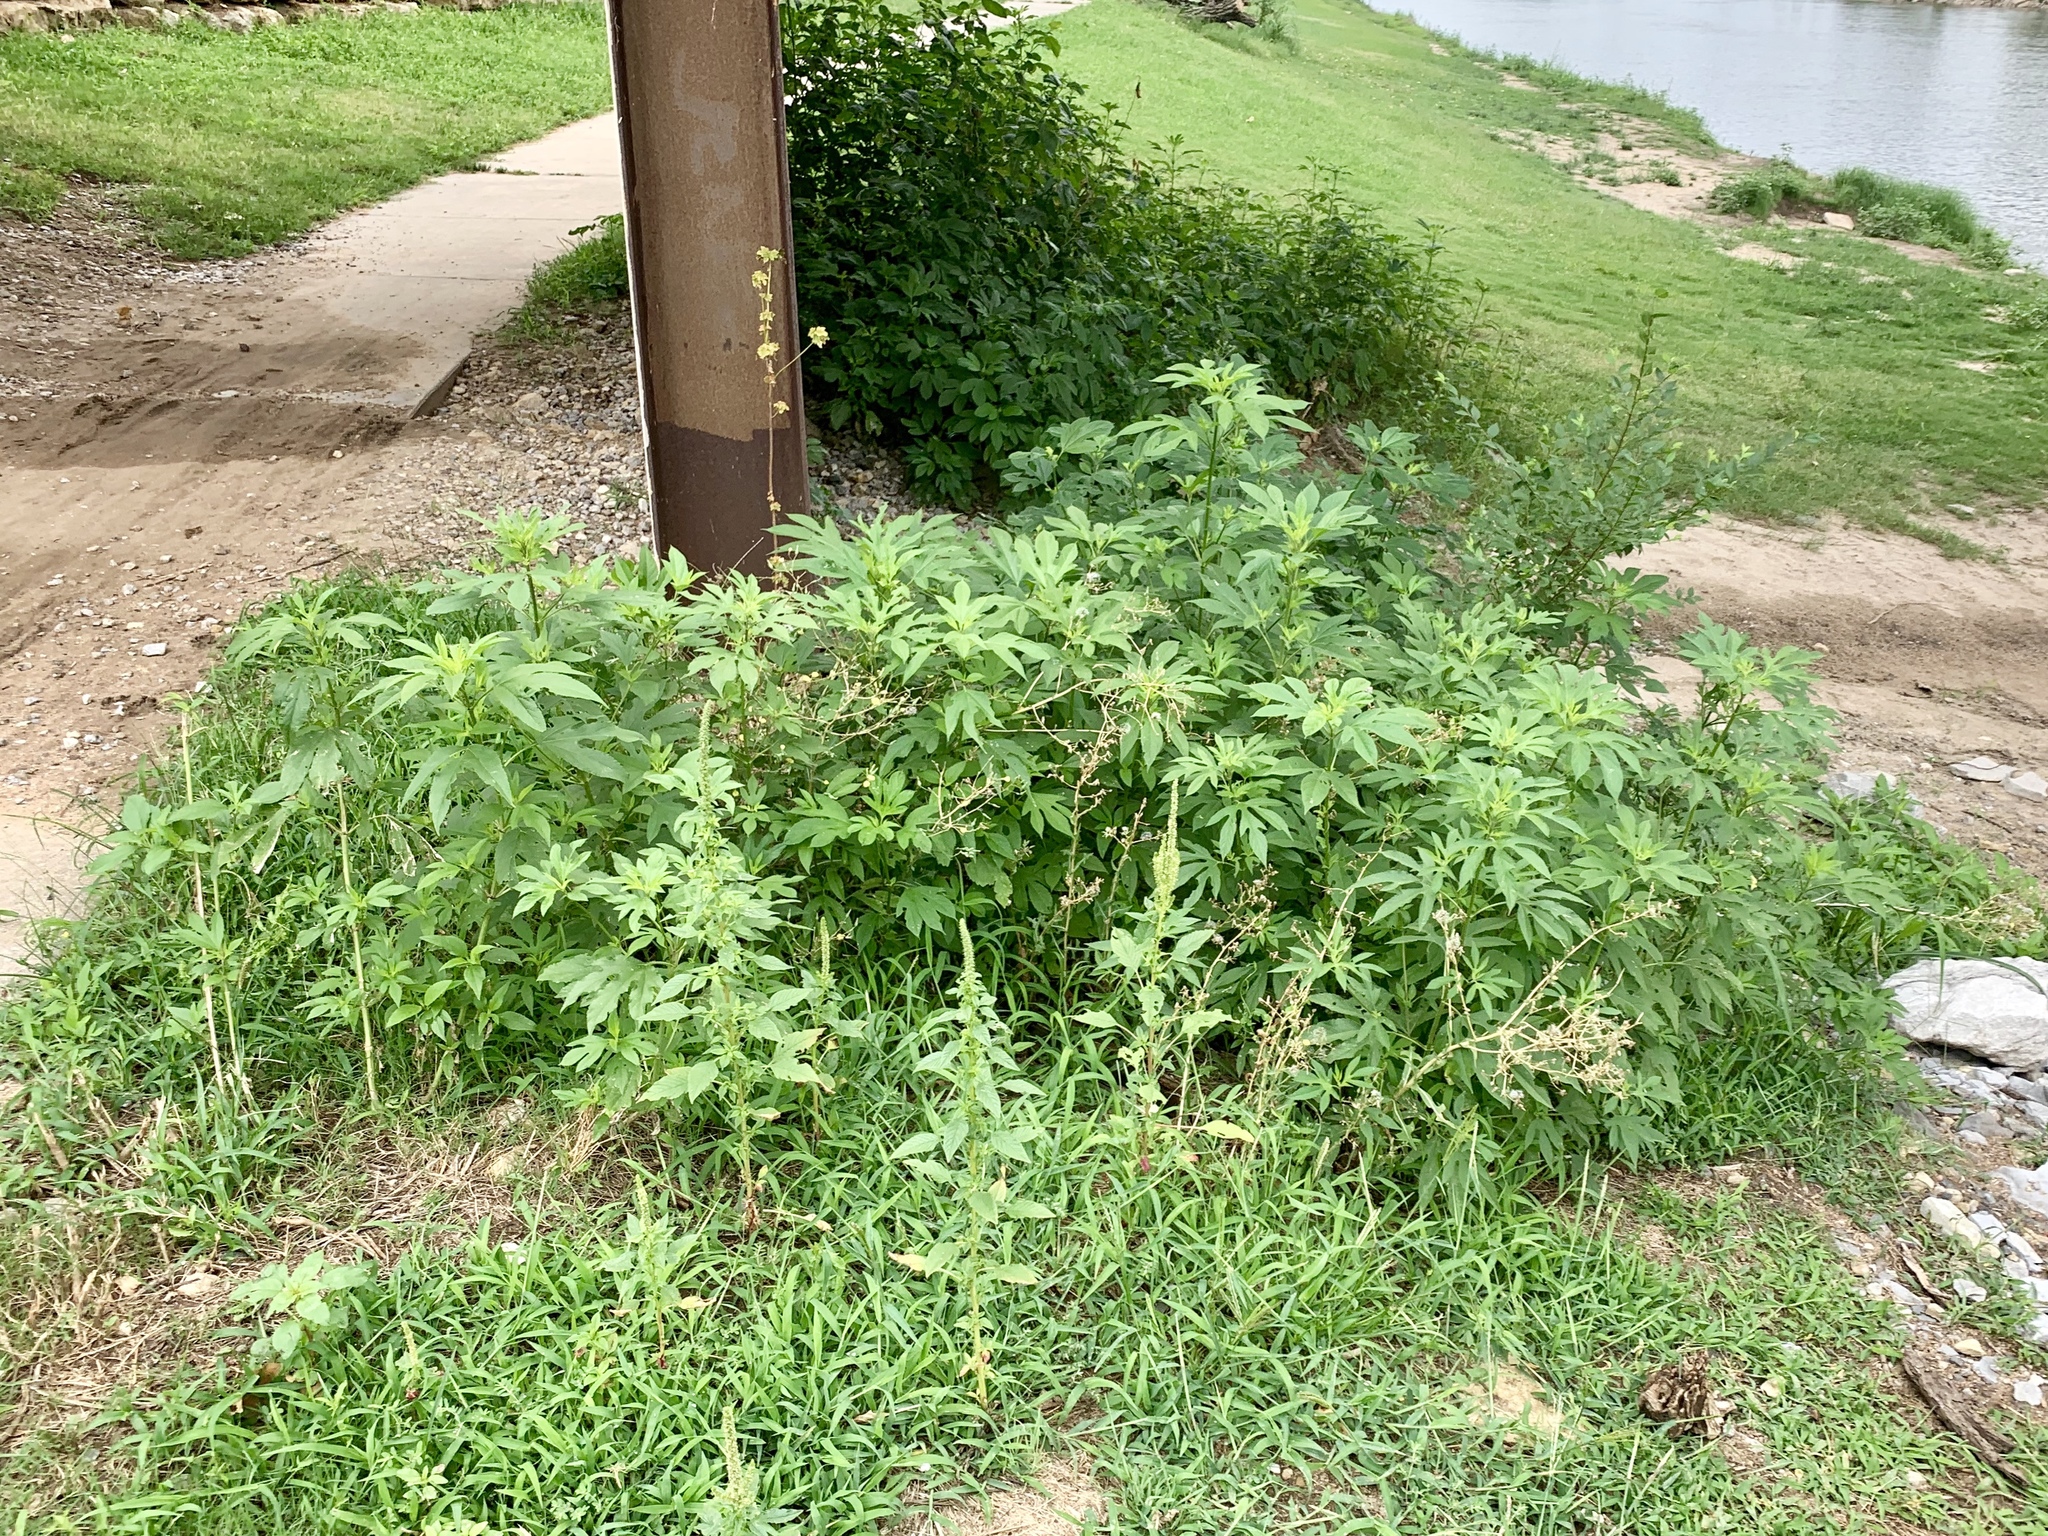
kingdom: Plantae
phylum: Tracheophyta
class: Magnoliopsida
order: Asterales
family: Asteraceae
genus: Ambrosia
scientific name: Ambrosia trifida
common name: Giant ragweed
